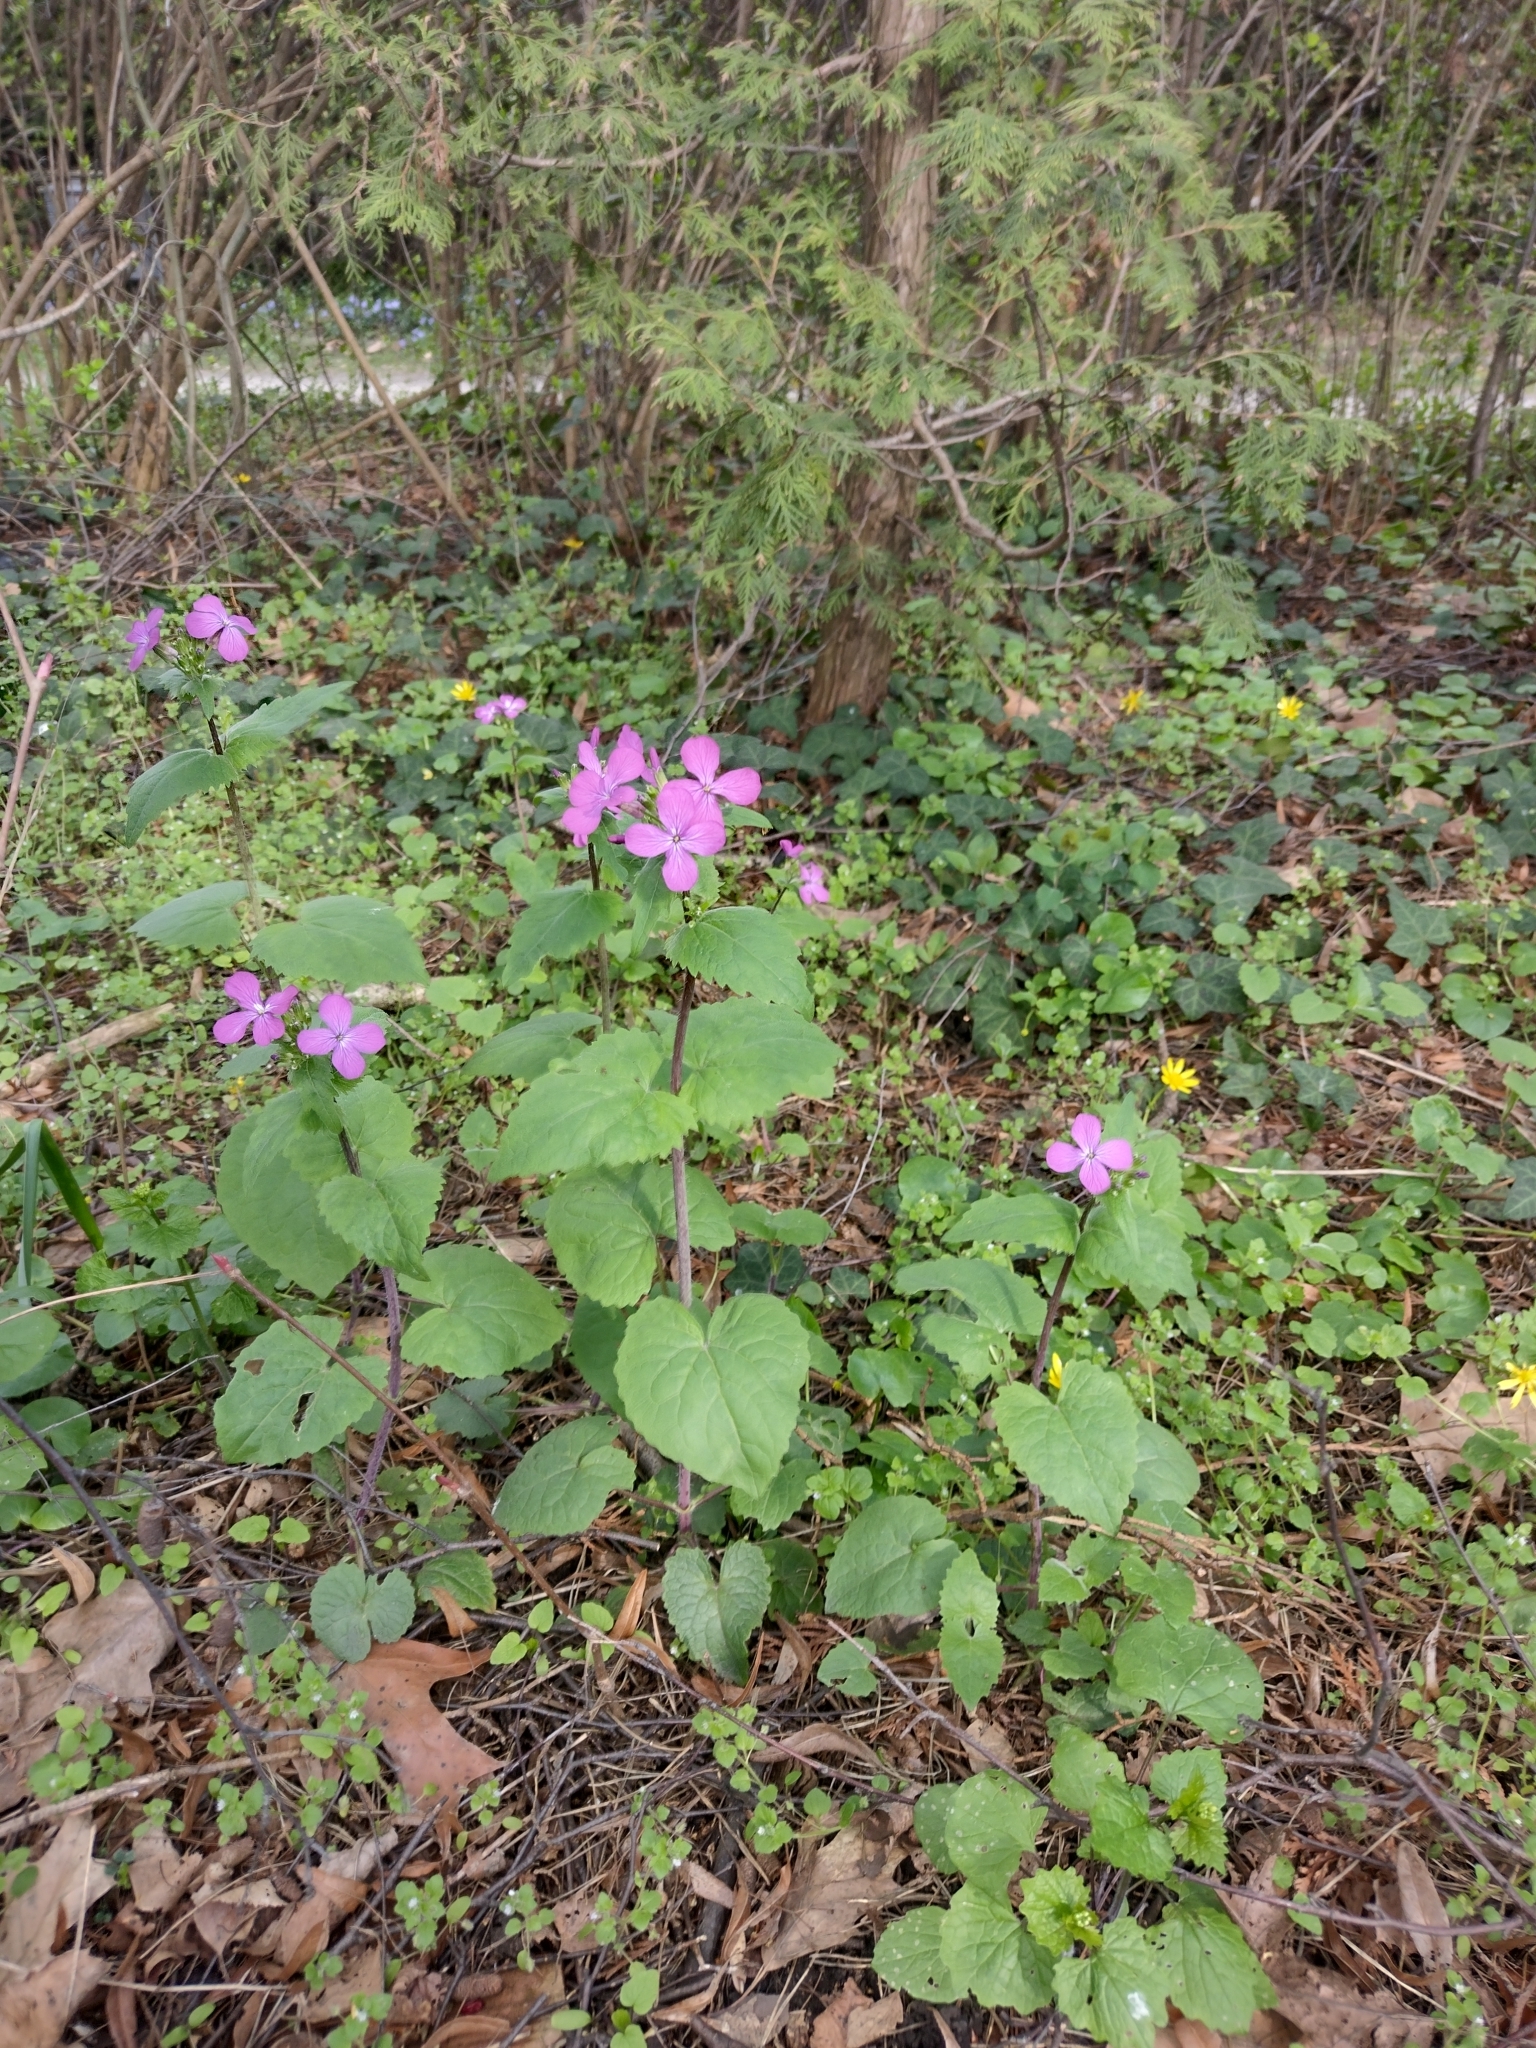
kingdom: Plantae
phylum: Tracheophyta
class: Magnoliopsida
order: Brassicales
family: Brassicaceae
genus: Lunaria
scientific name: Lunaria annua
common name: Honesty
